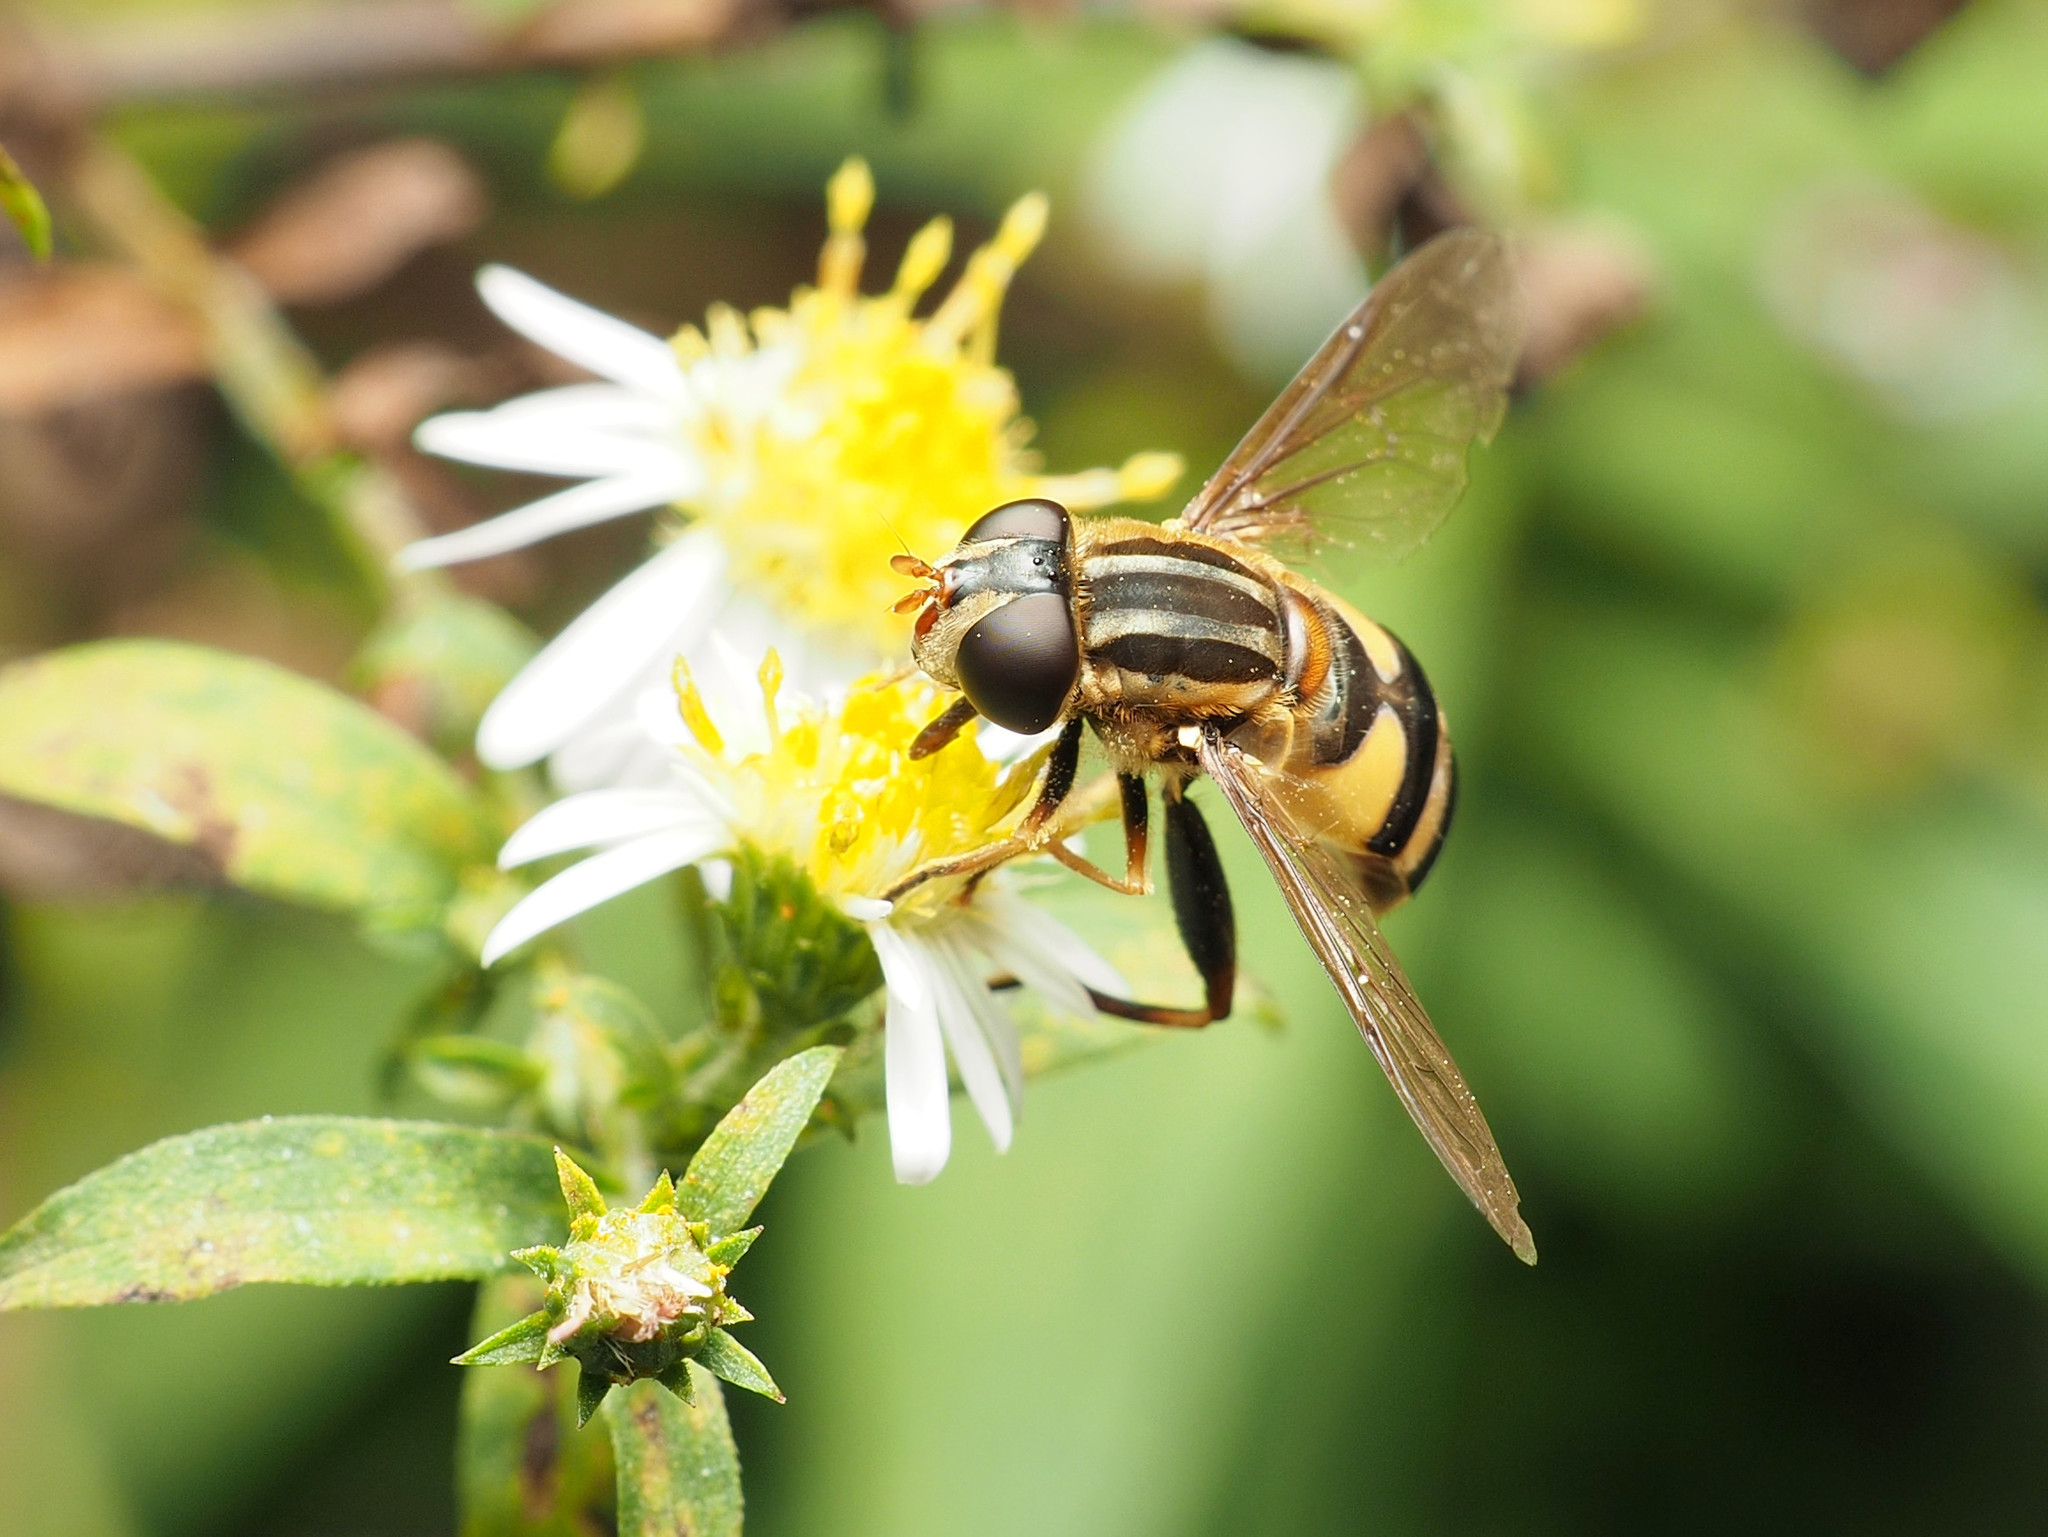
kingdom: Animalia
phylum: Arthropoda
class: Insecta
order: Diptera
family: Syrphidae
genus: Helophilus
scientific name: Helophilus fasciatus
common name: Narrow-headed marsh fly
